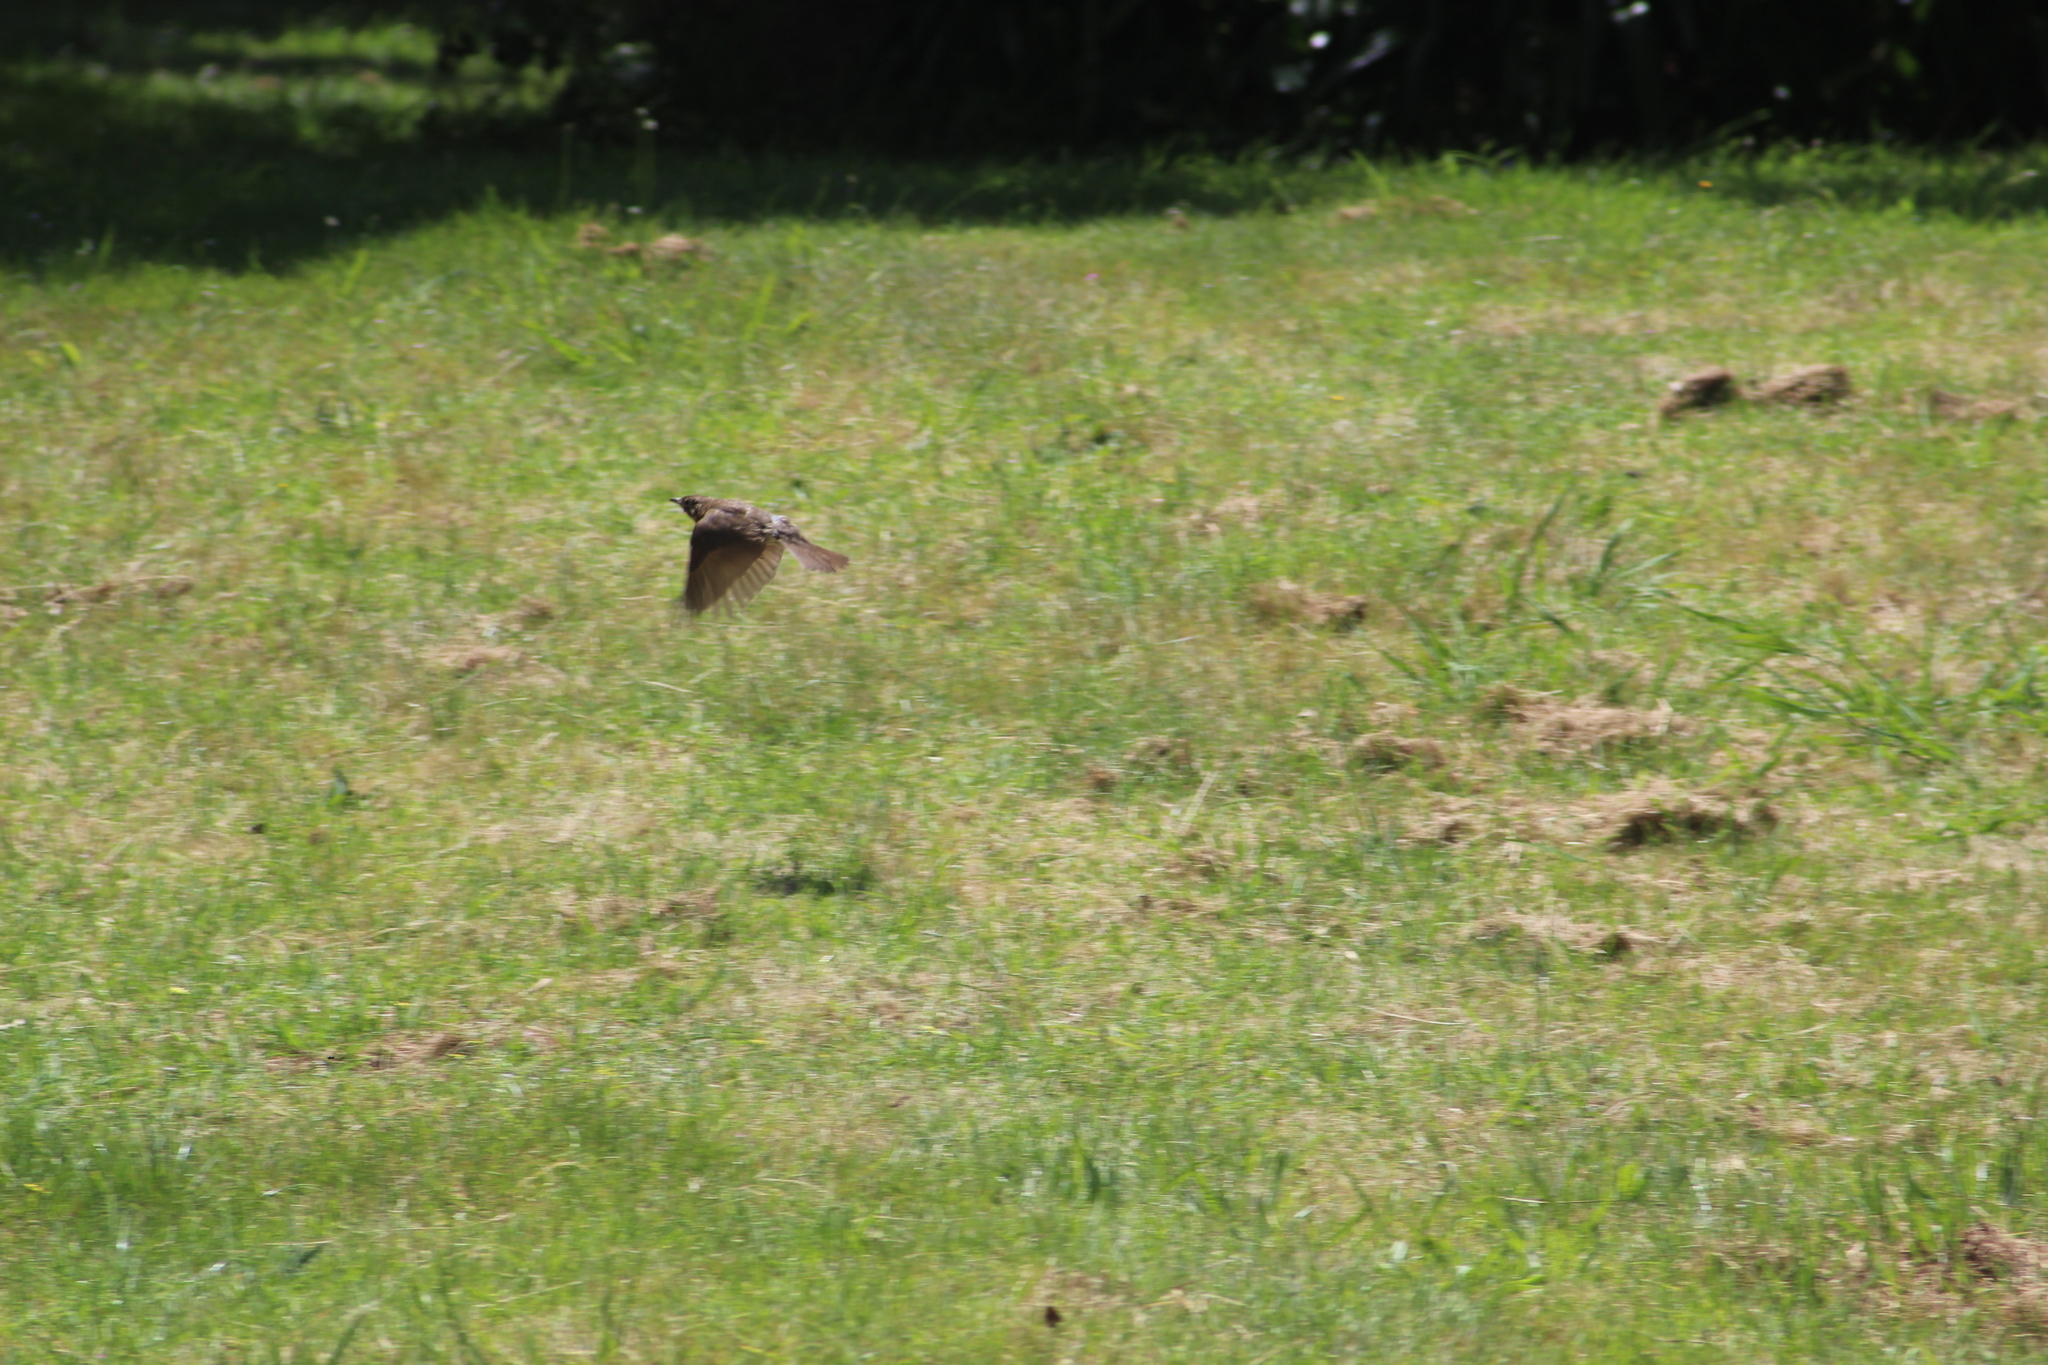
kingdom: Animalia
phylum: Chordata
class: Aves
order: Passeriformes
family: Turdidae
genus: Turdus
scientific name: Turdus philomelos
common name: Song thrush
